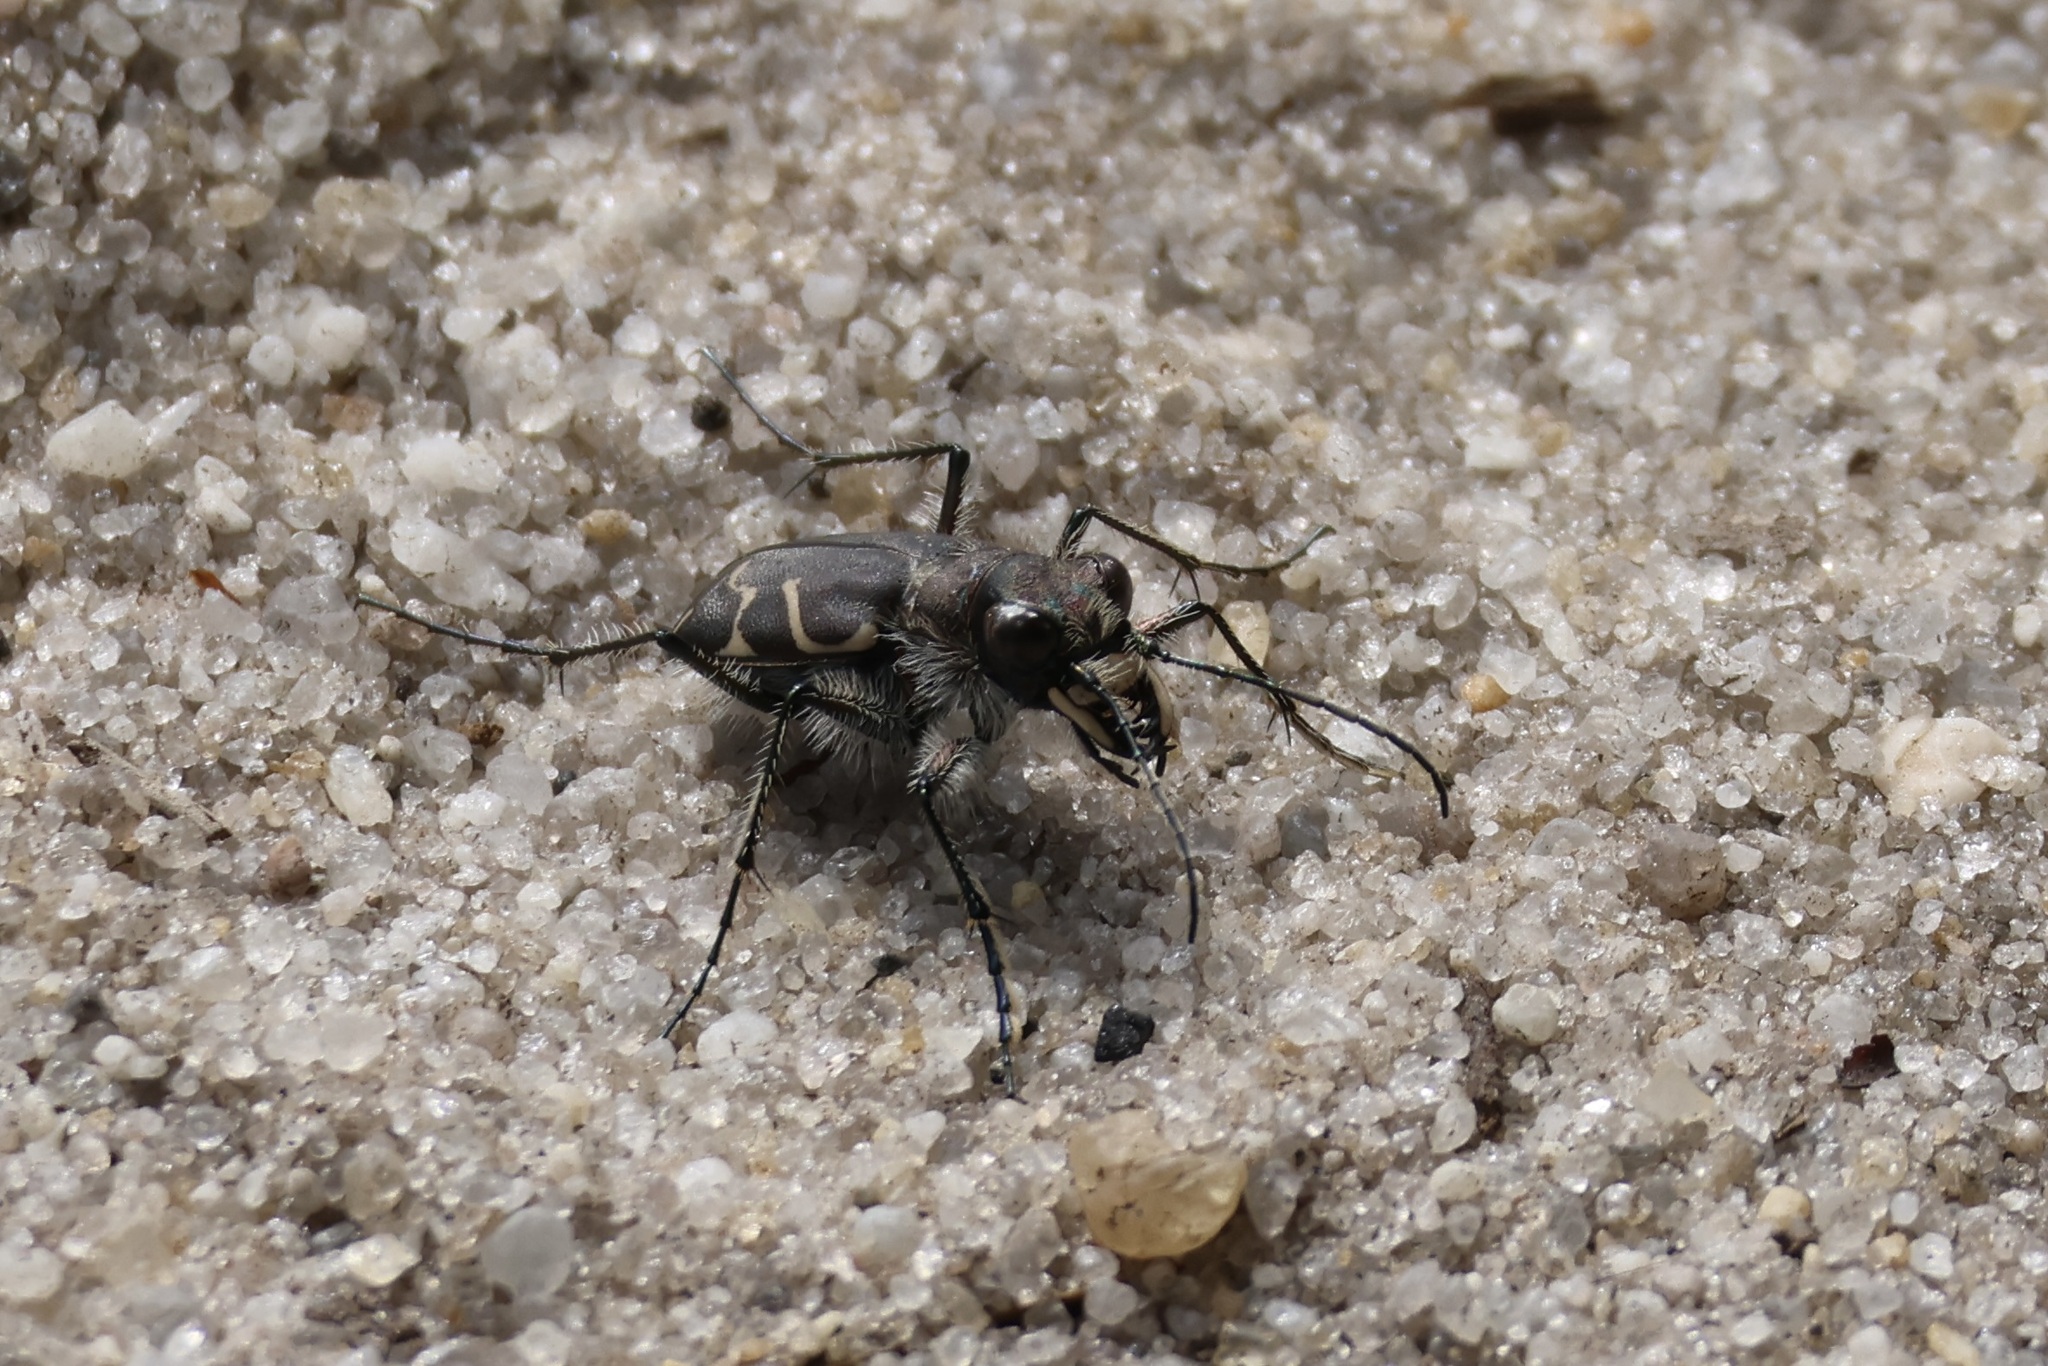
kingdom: Animalia
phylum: Arthropoda
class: Insecta
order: Coleoptera
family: Carabidae
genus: Cicindela
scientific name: Cicindela tranquebarica
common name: Oblique-lined tiger beetle
